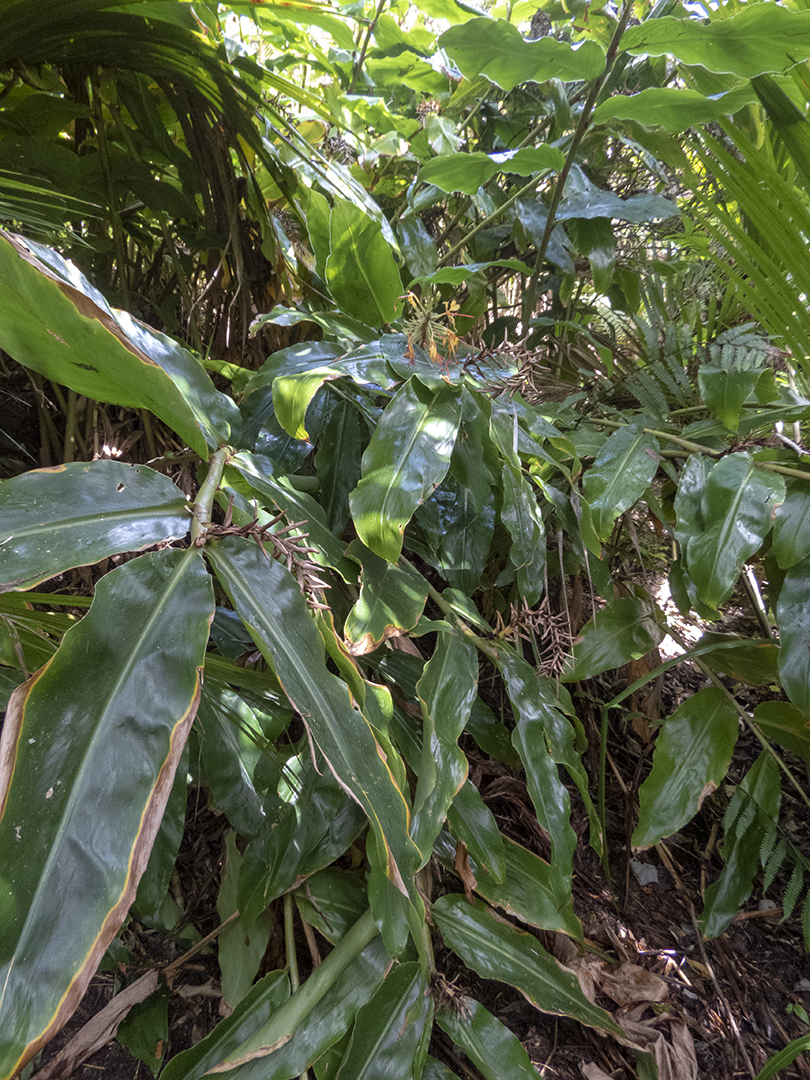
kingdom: Plantae
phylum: Tracheophyta
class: Liliopsida
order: Zingiberales
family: Zingiberaceae
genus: Hedychium
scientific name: Hedychium gardnerianum
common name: Himalayan ginger
